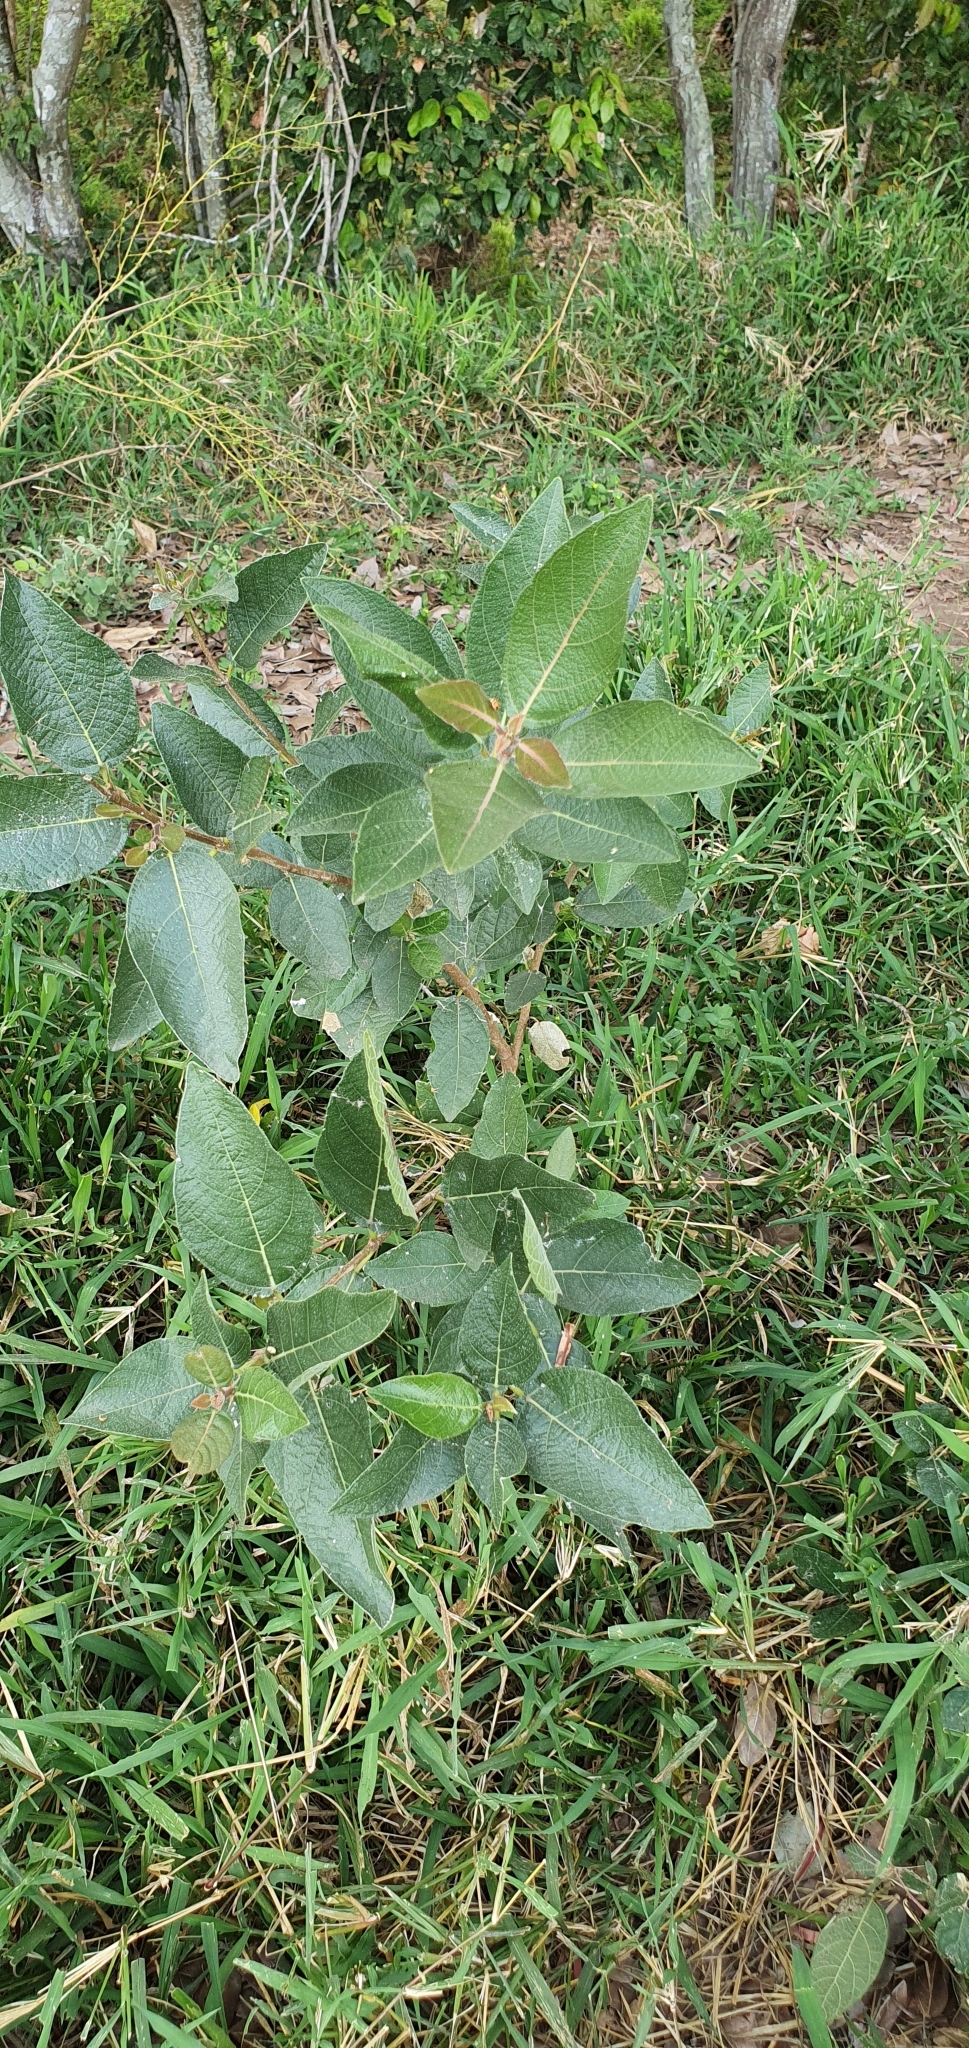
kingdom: Plantae
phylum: Tracheophyta
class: Magnoliopsida
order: Rosales
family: Moraceae
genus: Ficus
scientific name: Ficus opposita
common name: Figwood
